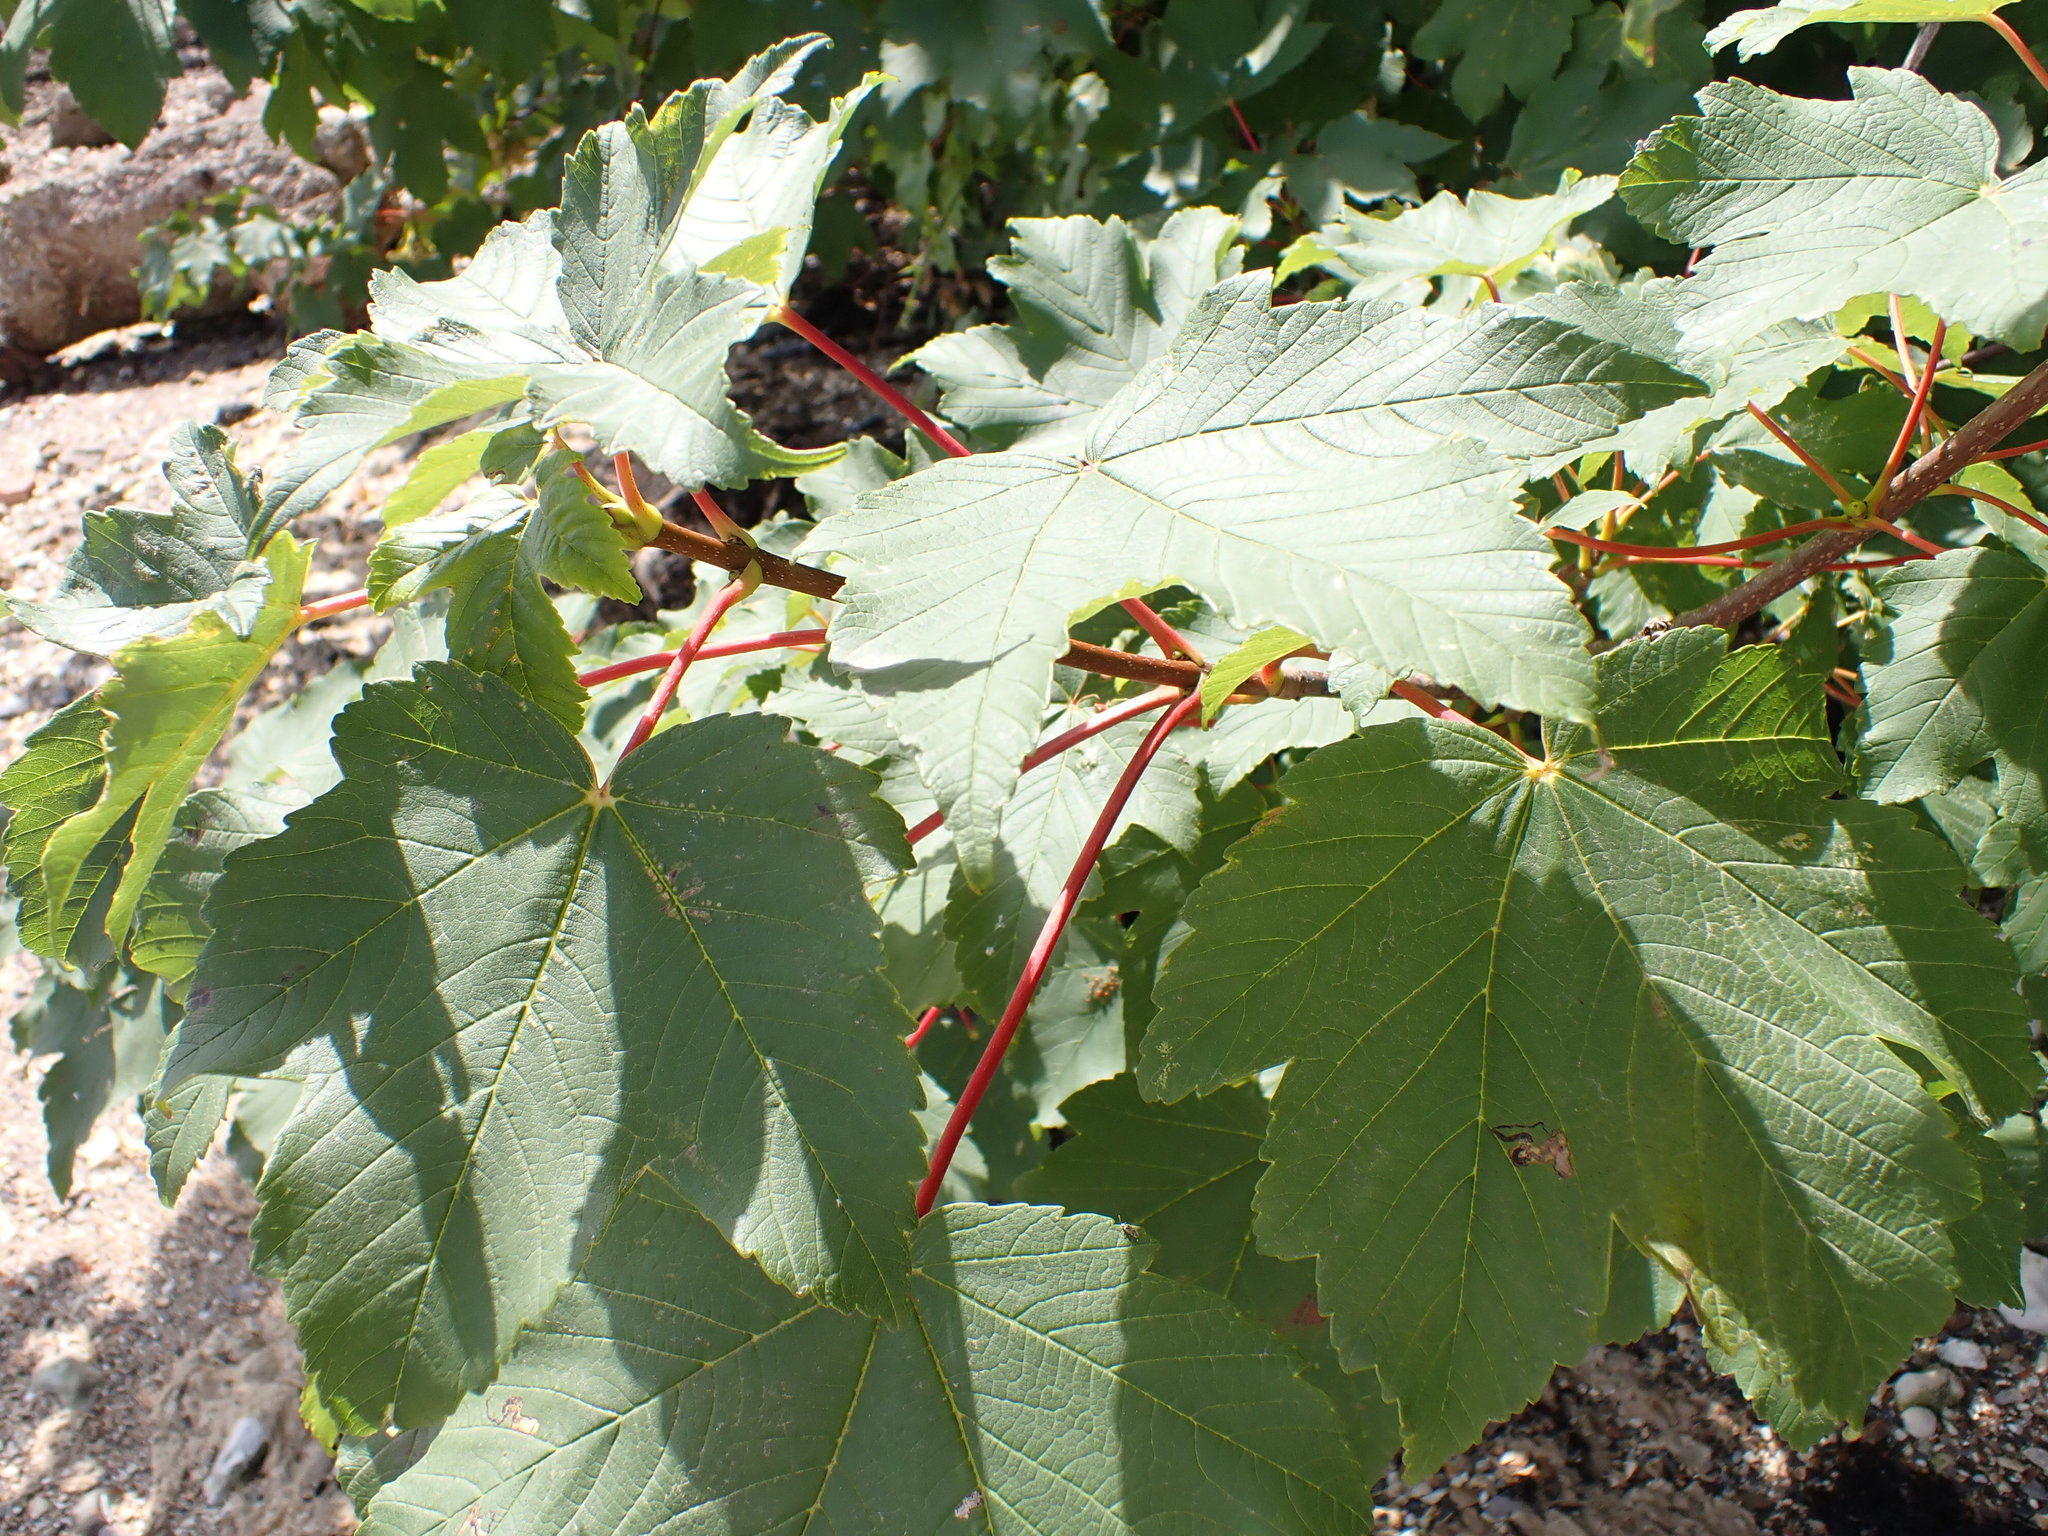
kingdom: Plantae
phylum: Tracheophyta
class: Magnoliopsida
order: Sapindales
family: Sapindaceae
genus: Acer
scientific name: Acer pseudoplatanus
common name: Sycamore
